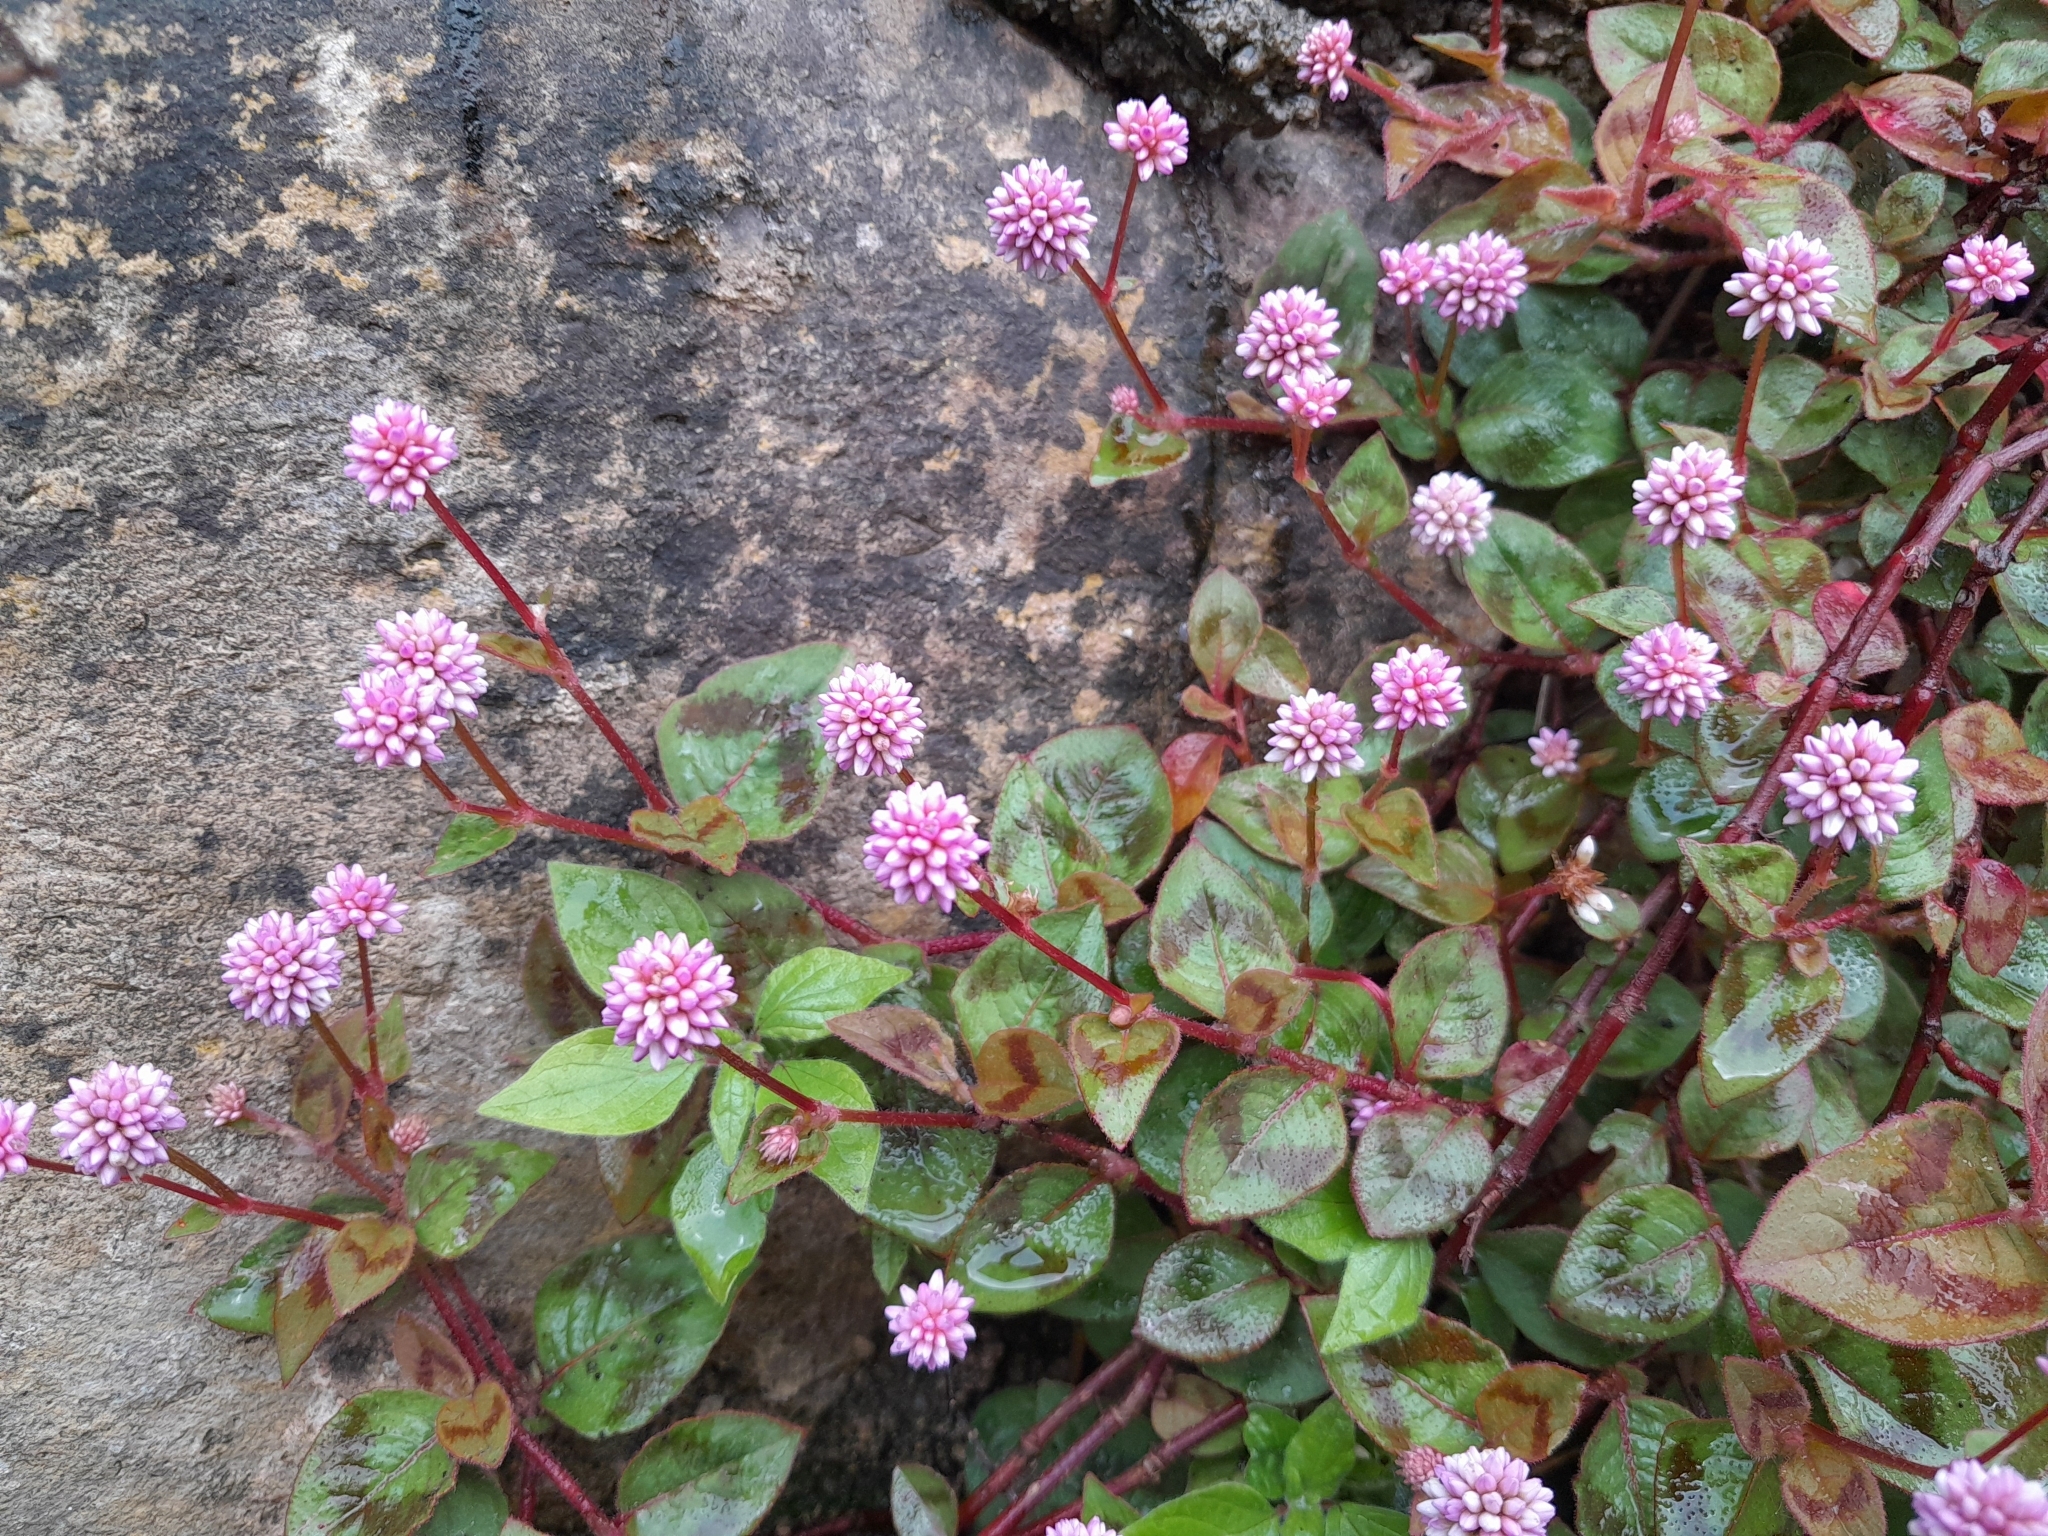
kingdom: Plantae
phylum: Tracheophyta
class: Magnoliopsida
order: Caryophyllales
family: Polygonaceae
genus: Persicaria
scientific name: Persicaria capitata
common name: Pinkhead smartweed
